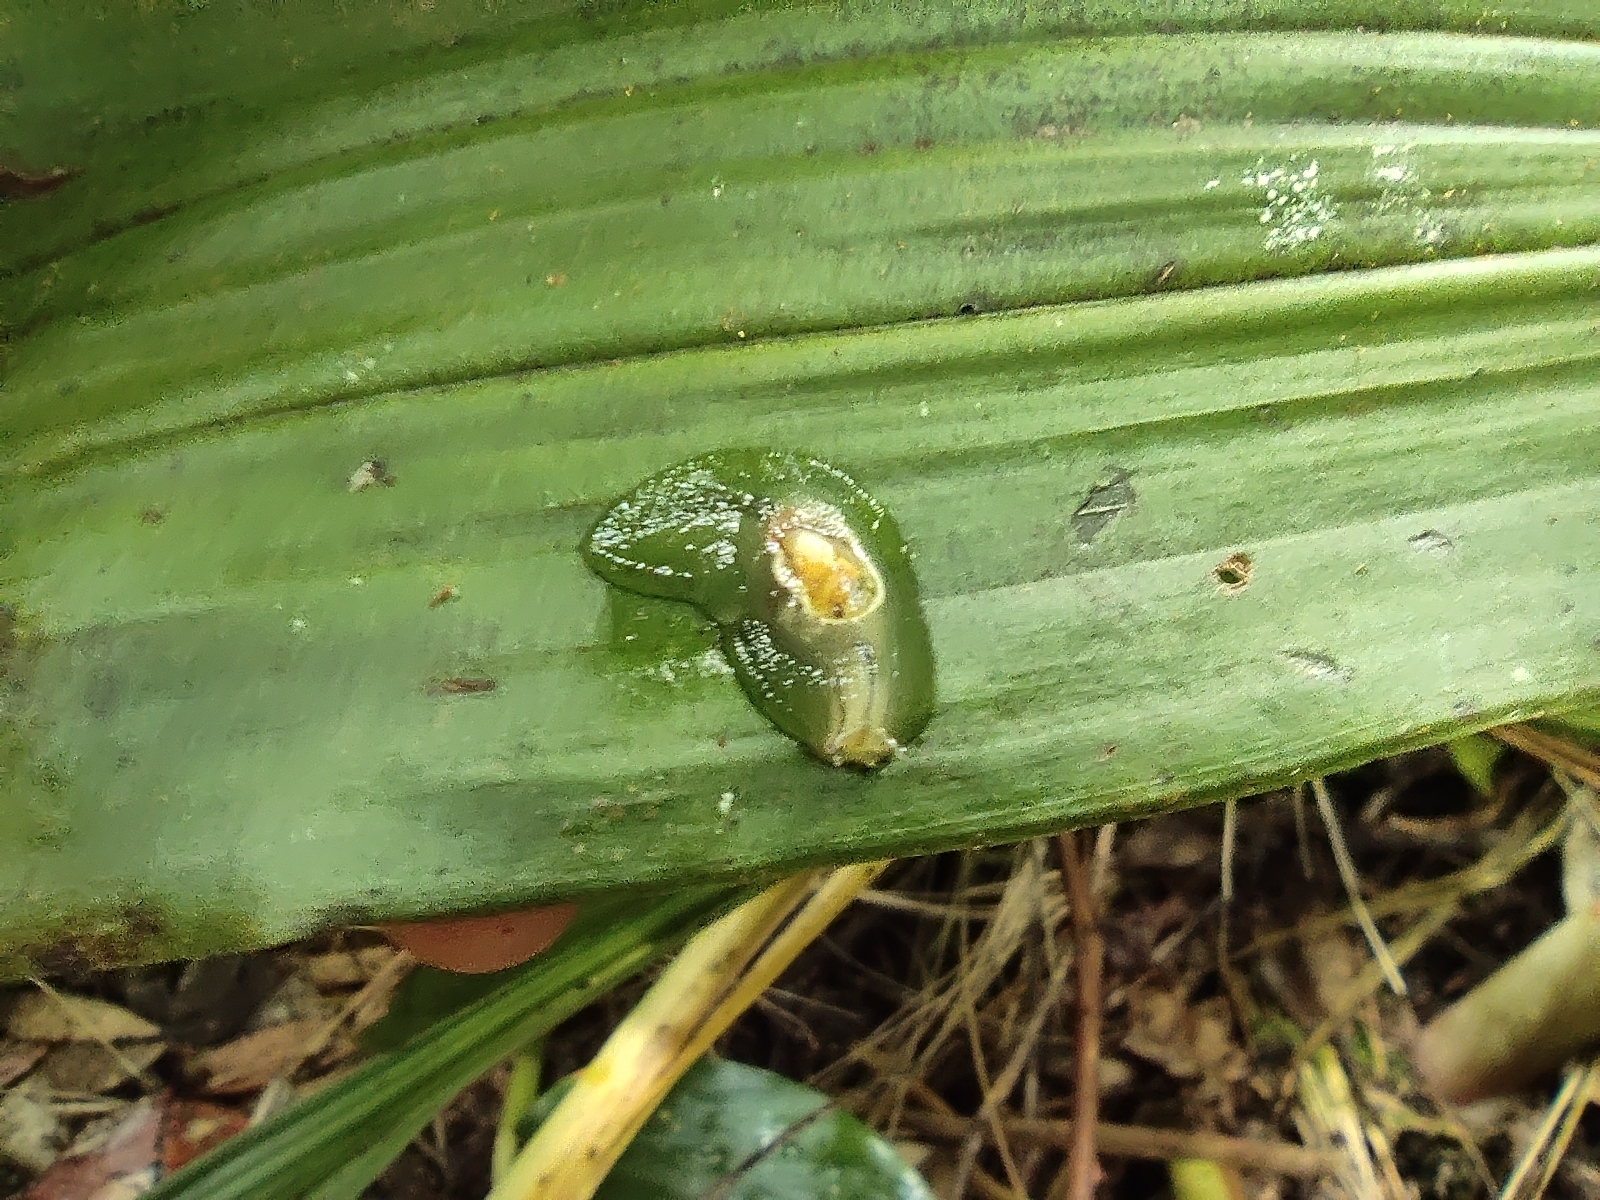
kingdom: Animalia
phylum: Mollusca
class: Gastropoda
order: Stylommatophora
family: Succineidae
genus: Hyalimax
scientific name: Hyalimax maillardi
